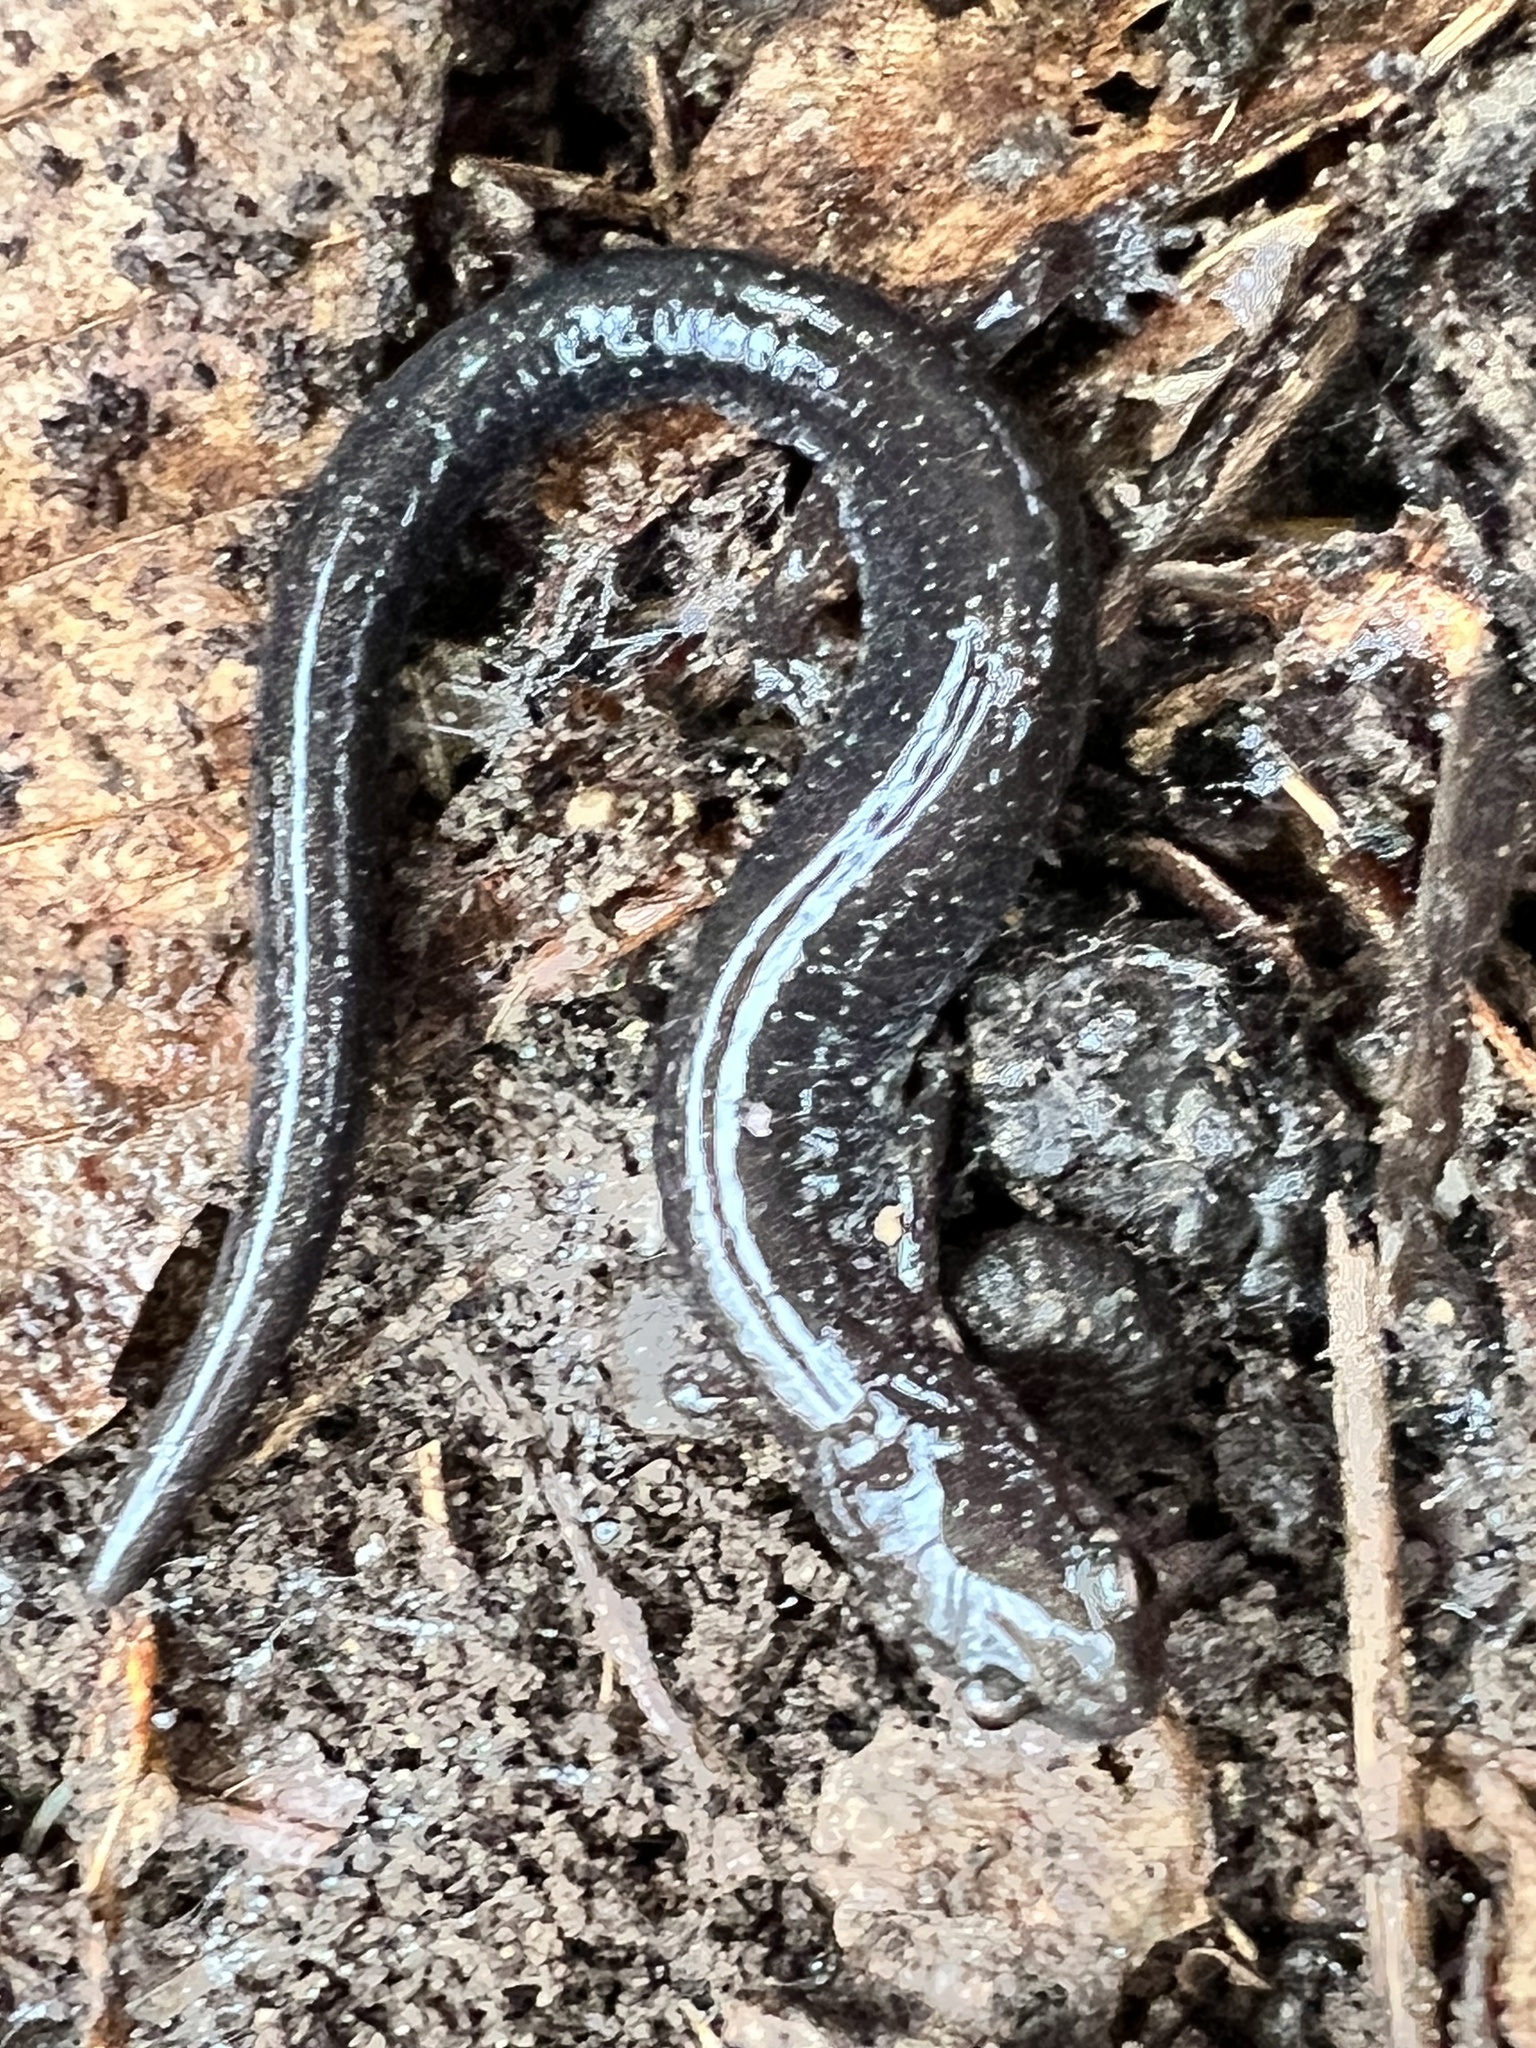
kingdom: Animalia
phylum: Chordata
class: Amphibia
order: Caudata
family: Plethodontidae
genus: Plethodon
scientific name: Plethodon cinereus
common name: Redback salamander
